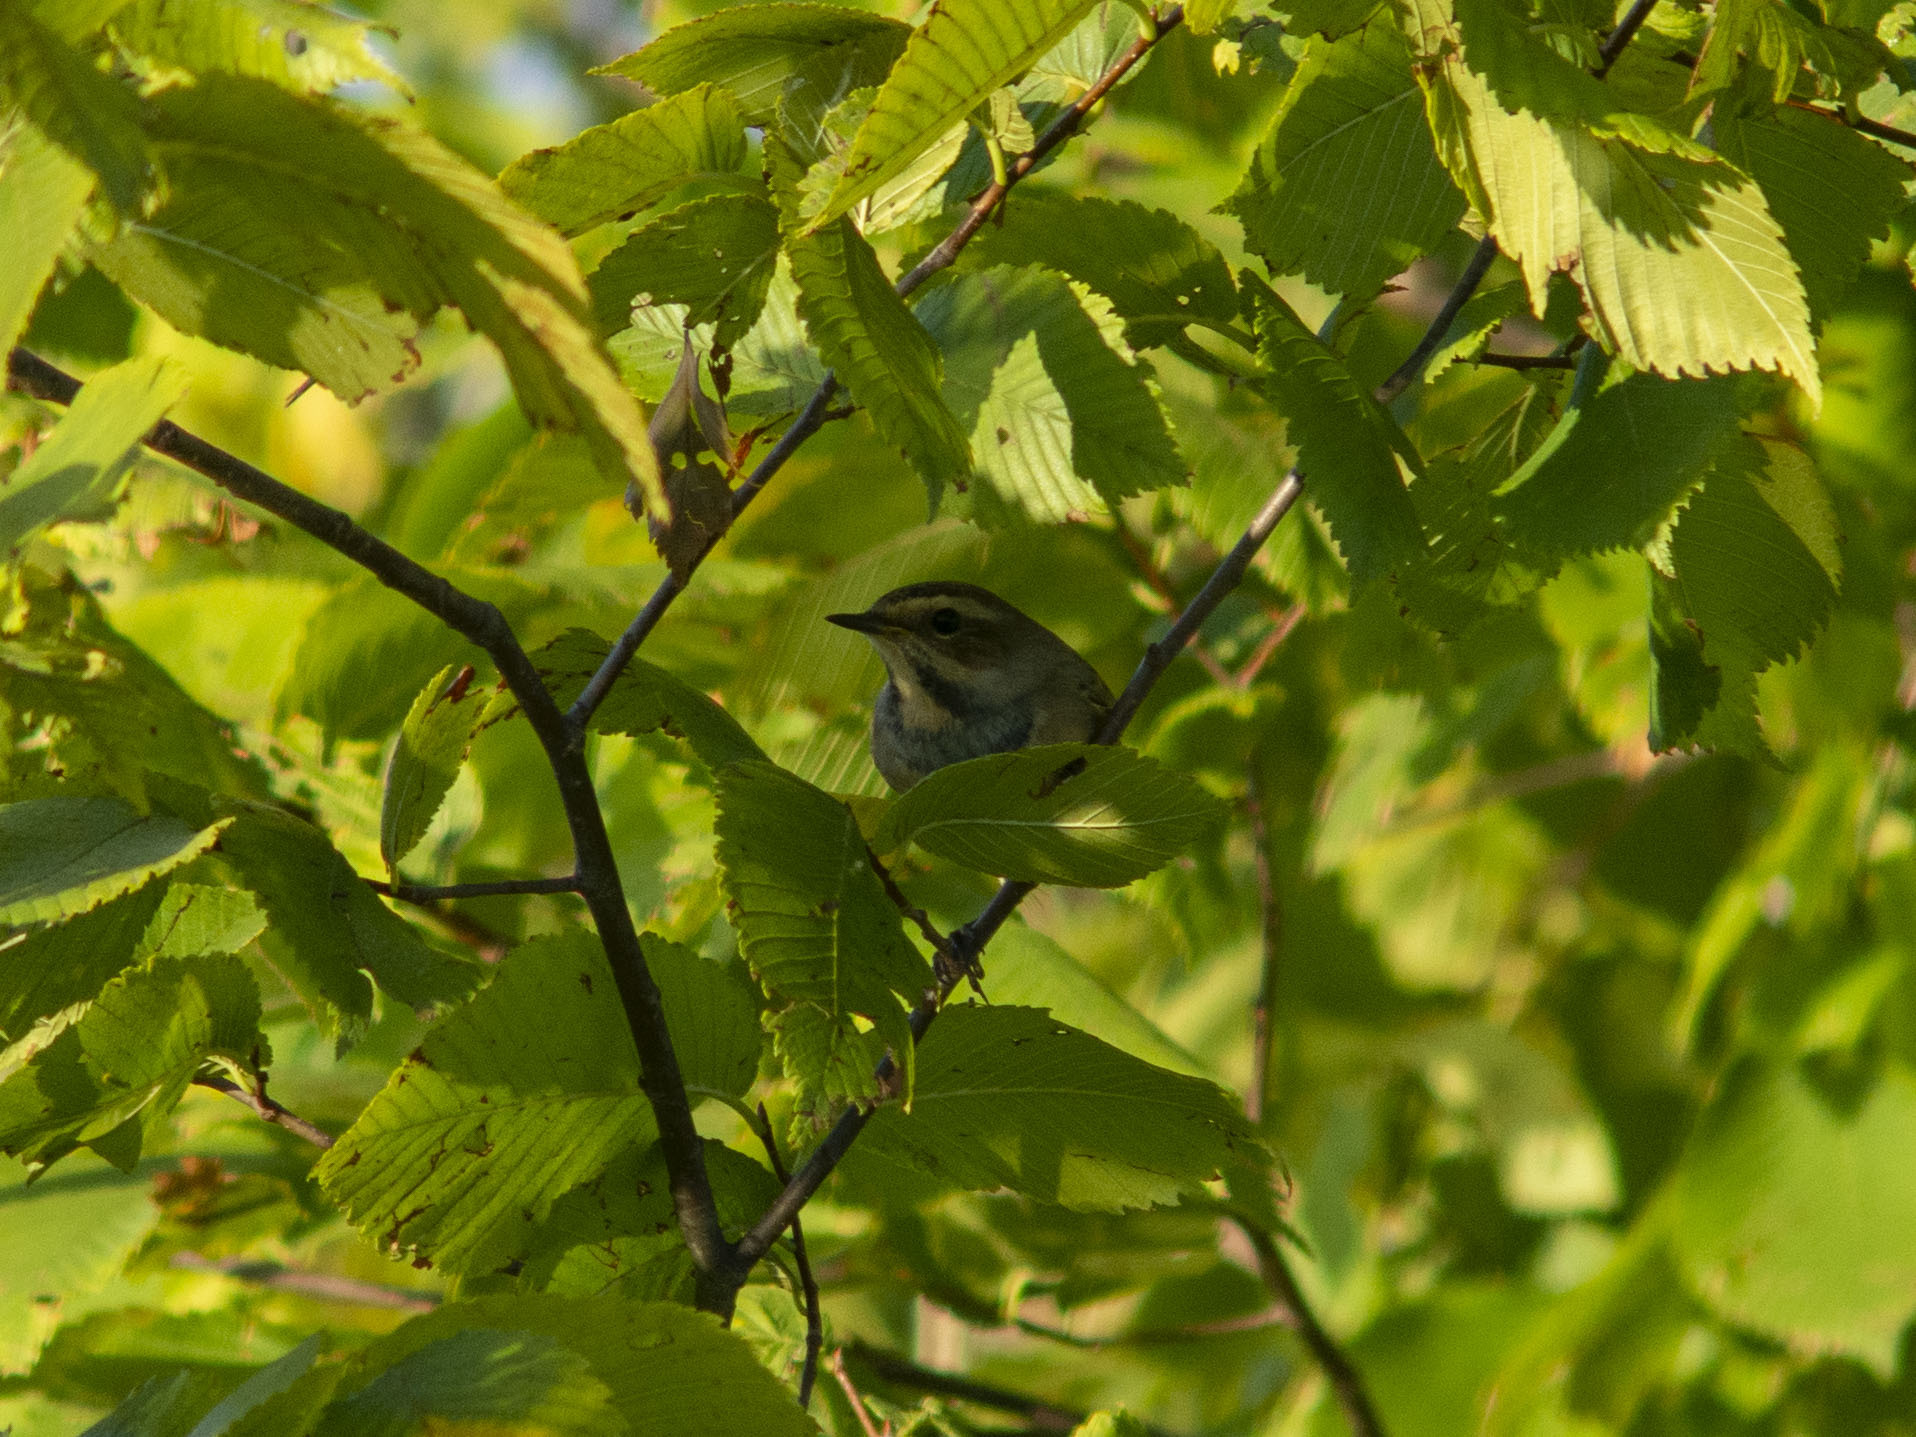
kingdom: Animalia
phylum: Chordata
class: Aves
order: Passeriformes
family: Muscicapidae
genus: Luscinia
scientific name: Luscinia svecica
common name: Bluethroat
